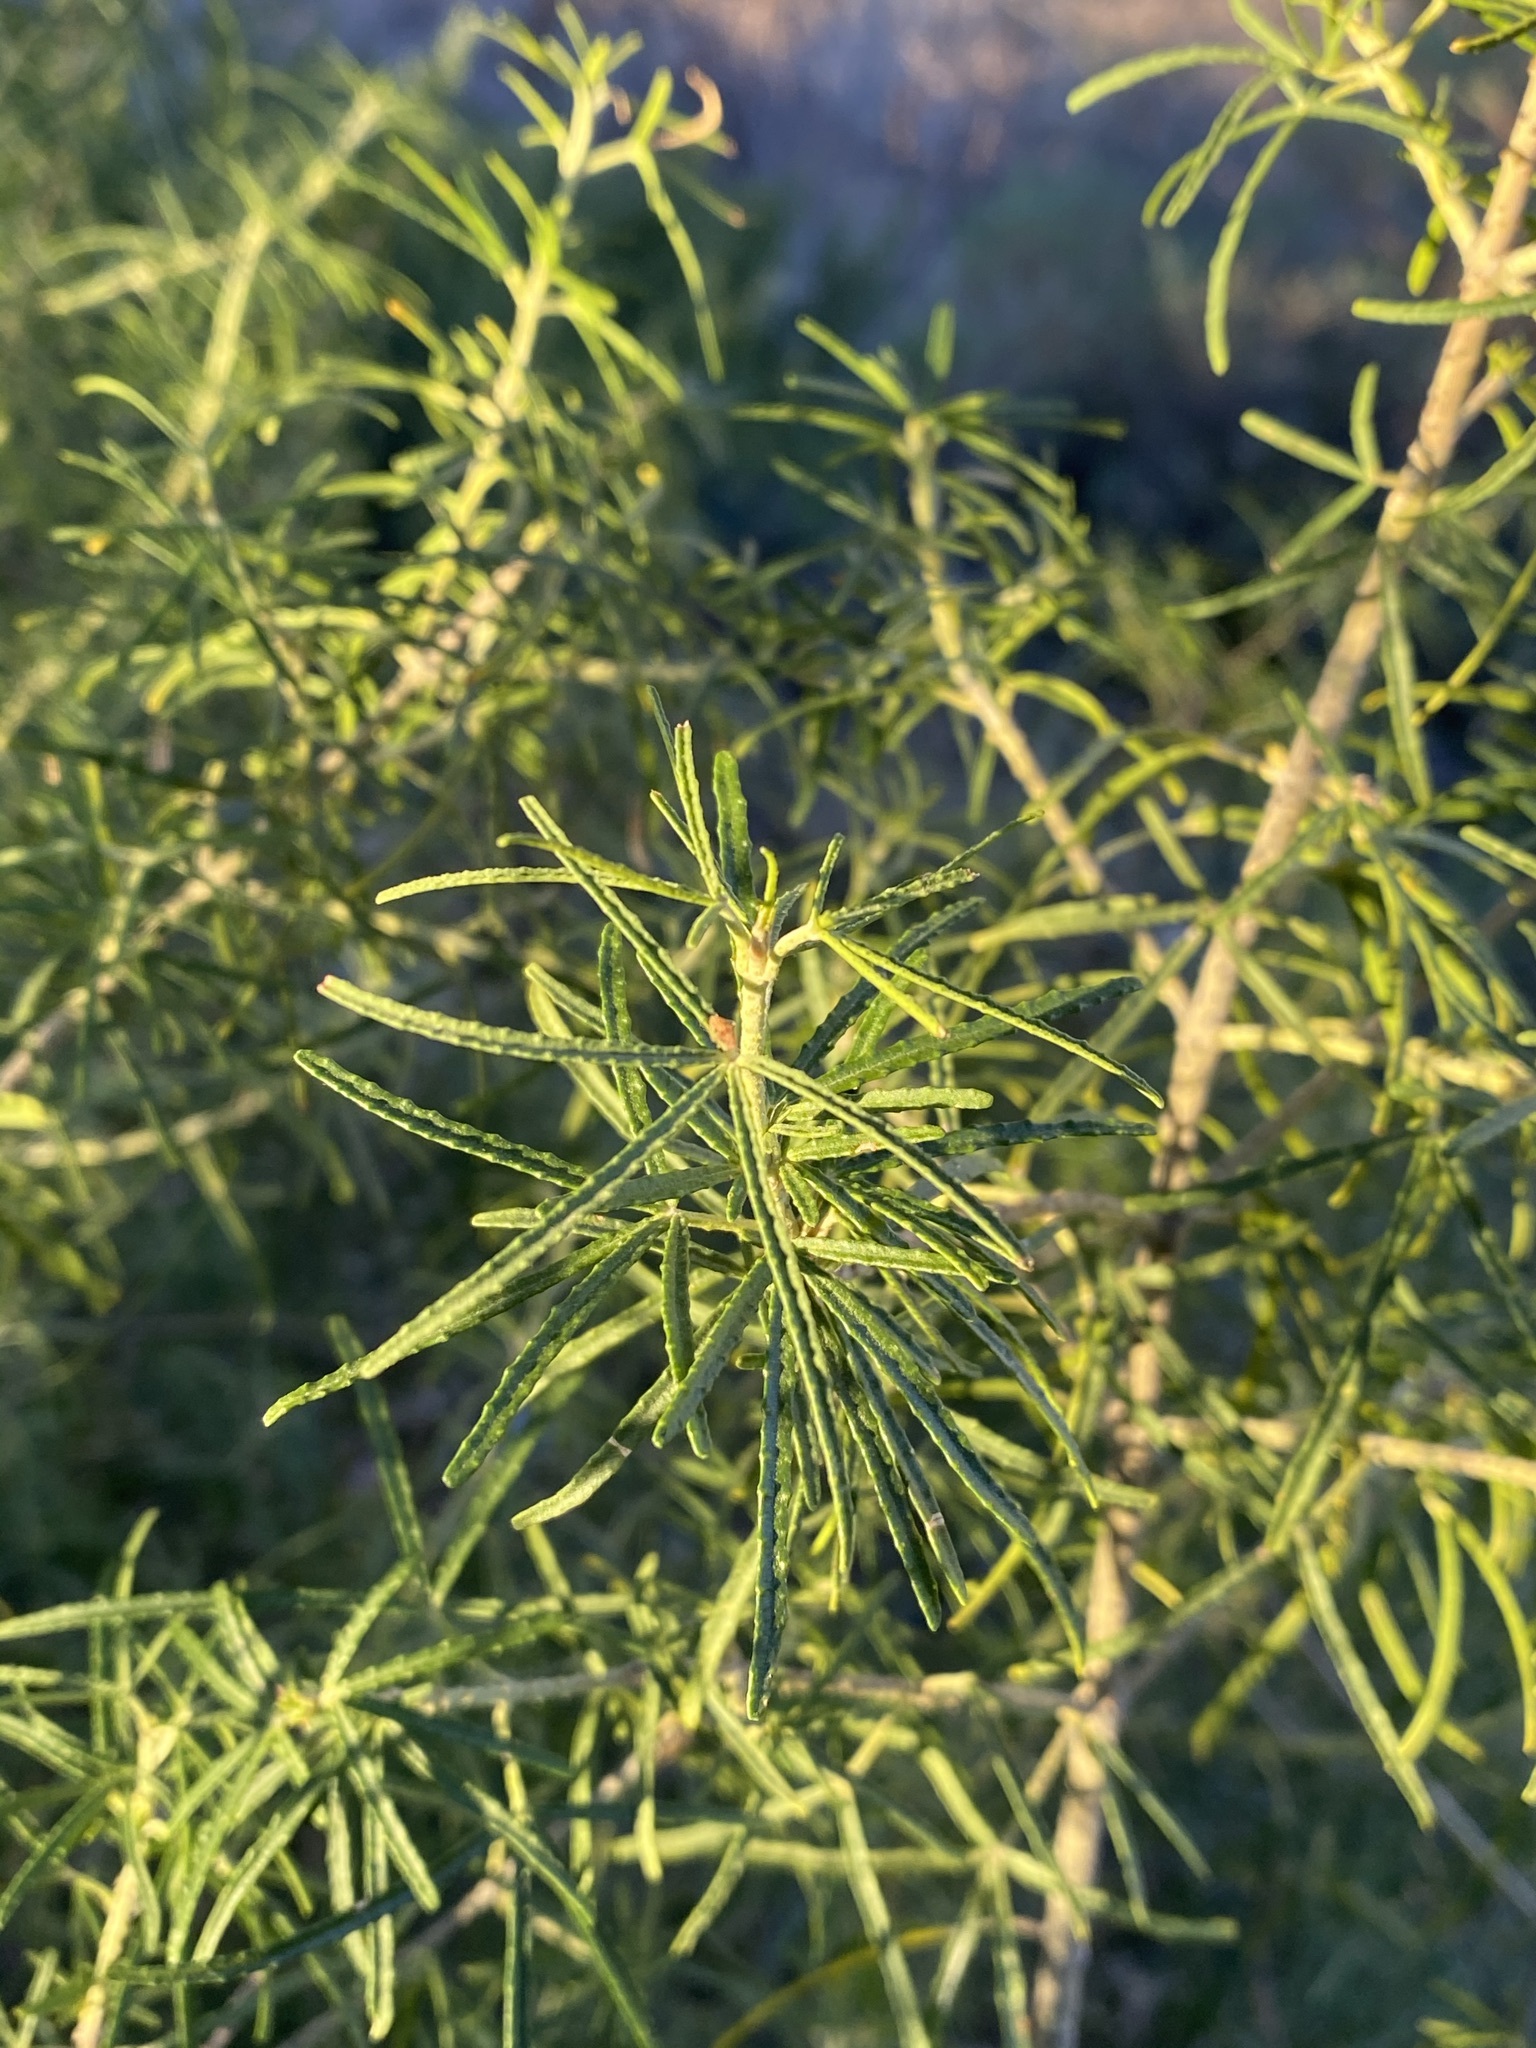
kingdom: Plantae
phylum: Tracheophyta
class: Magnoliopsida
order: Sapindales
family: Rutaceae
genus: Choisya
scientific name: Choisya dumosa
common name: Mexican-orange
